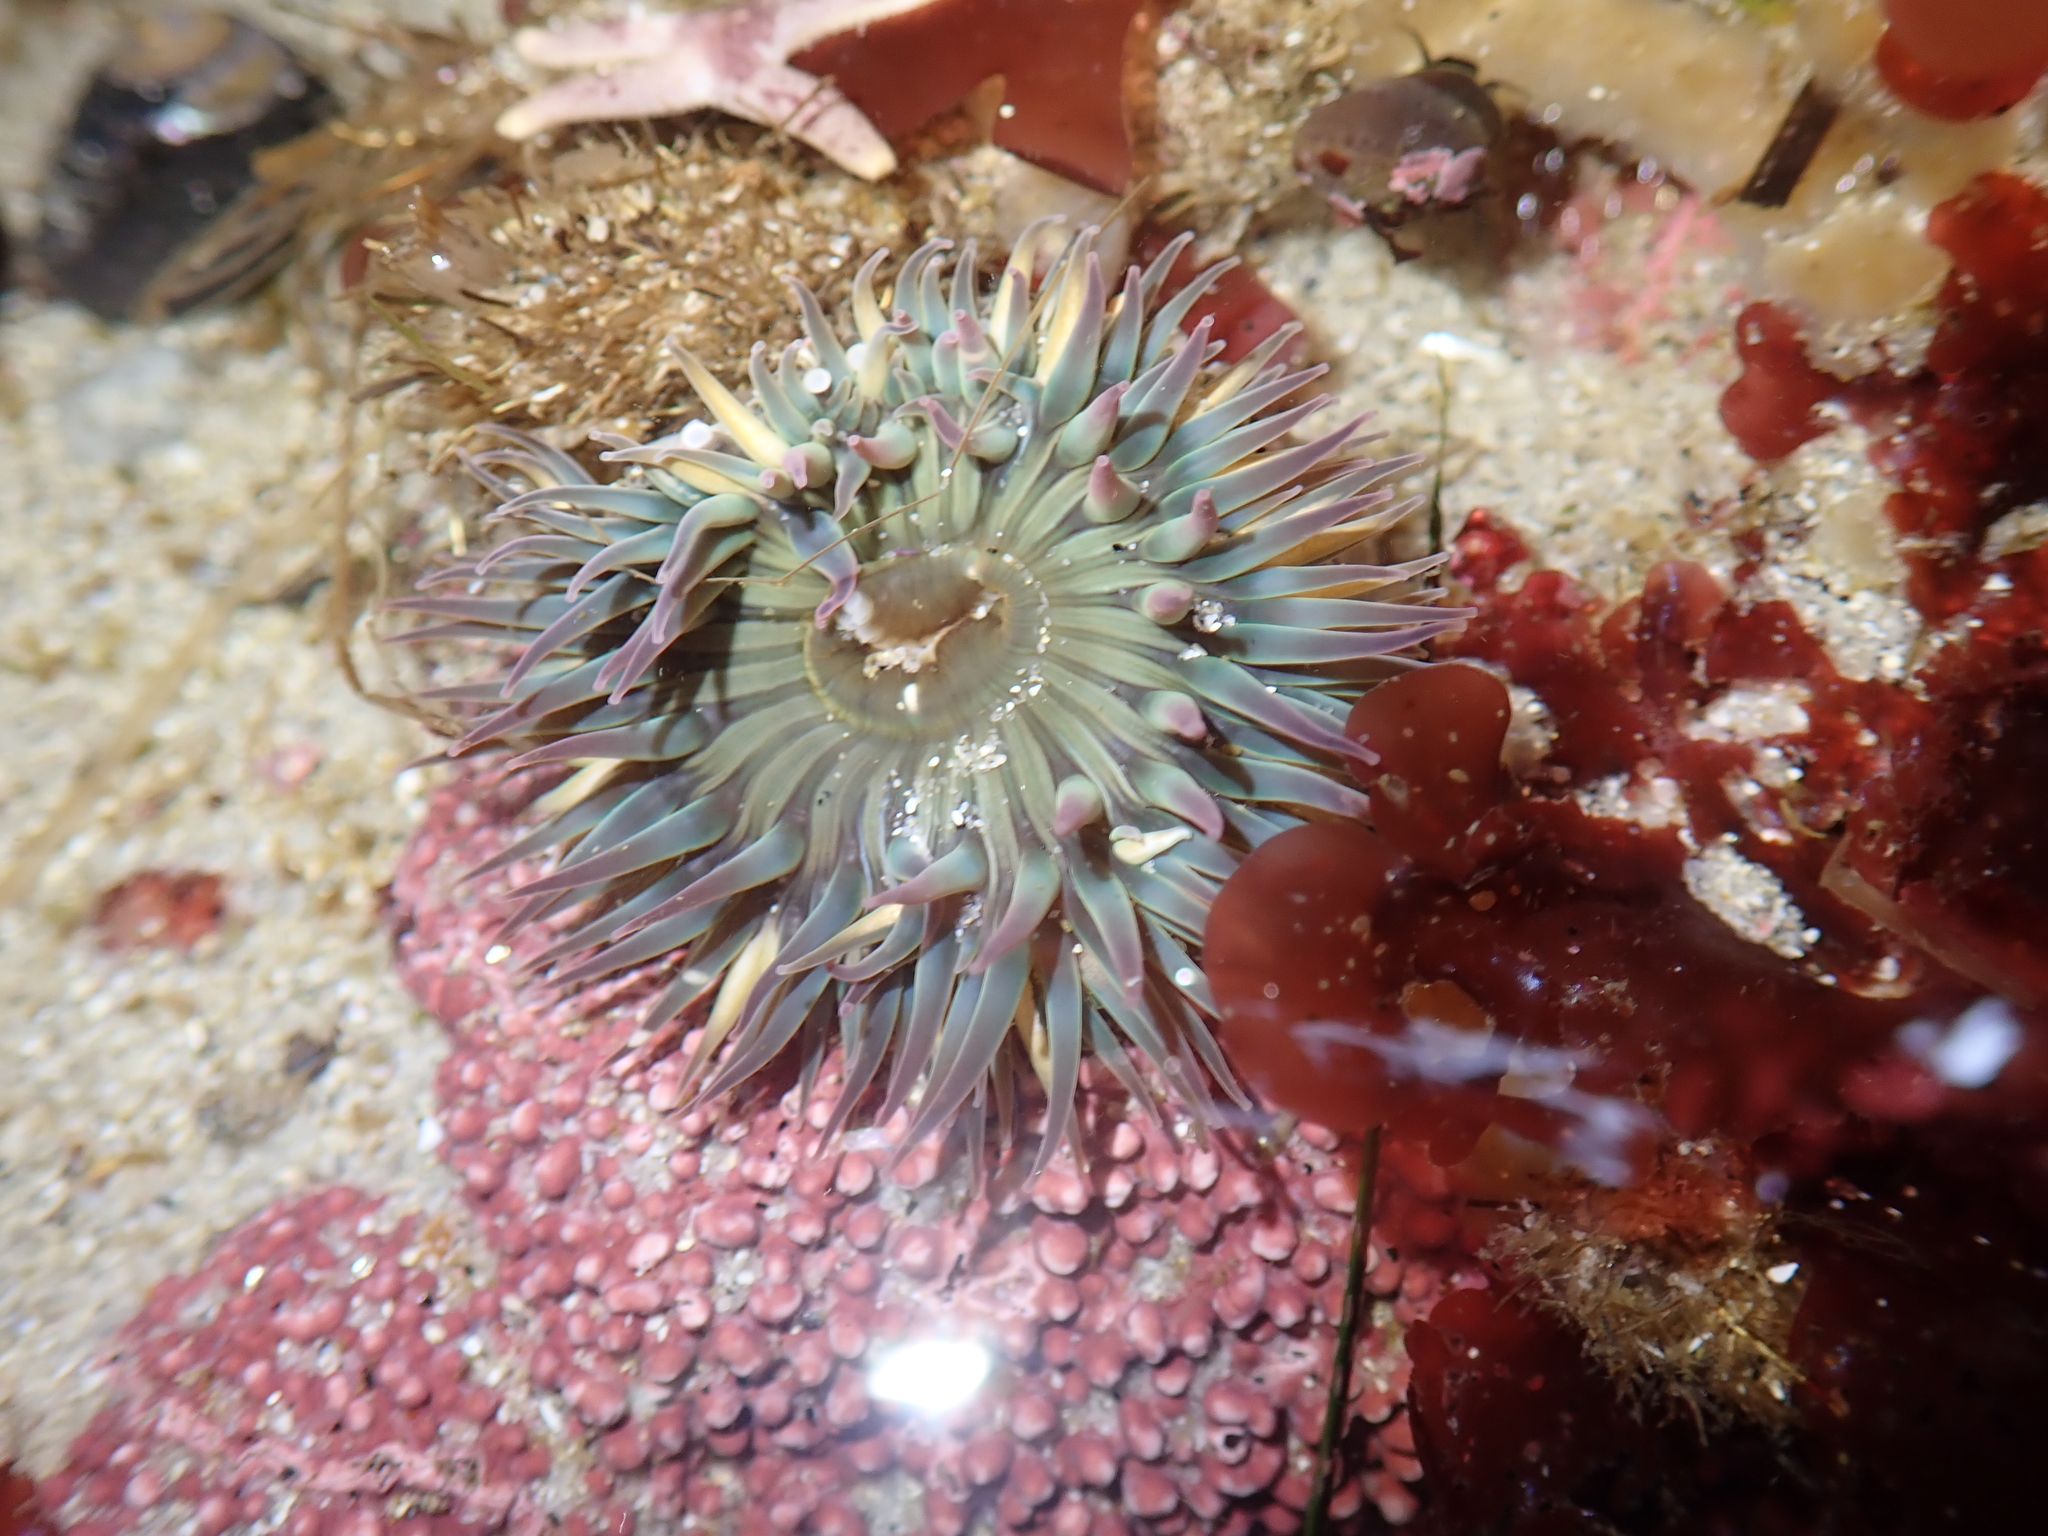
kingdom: Animalia
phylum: Cnidaria
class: Anthozoa
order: Actiniaria
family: Actiniidae
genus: Anthopleura
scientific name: Anthopleura sola
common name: Sun anemone
